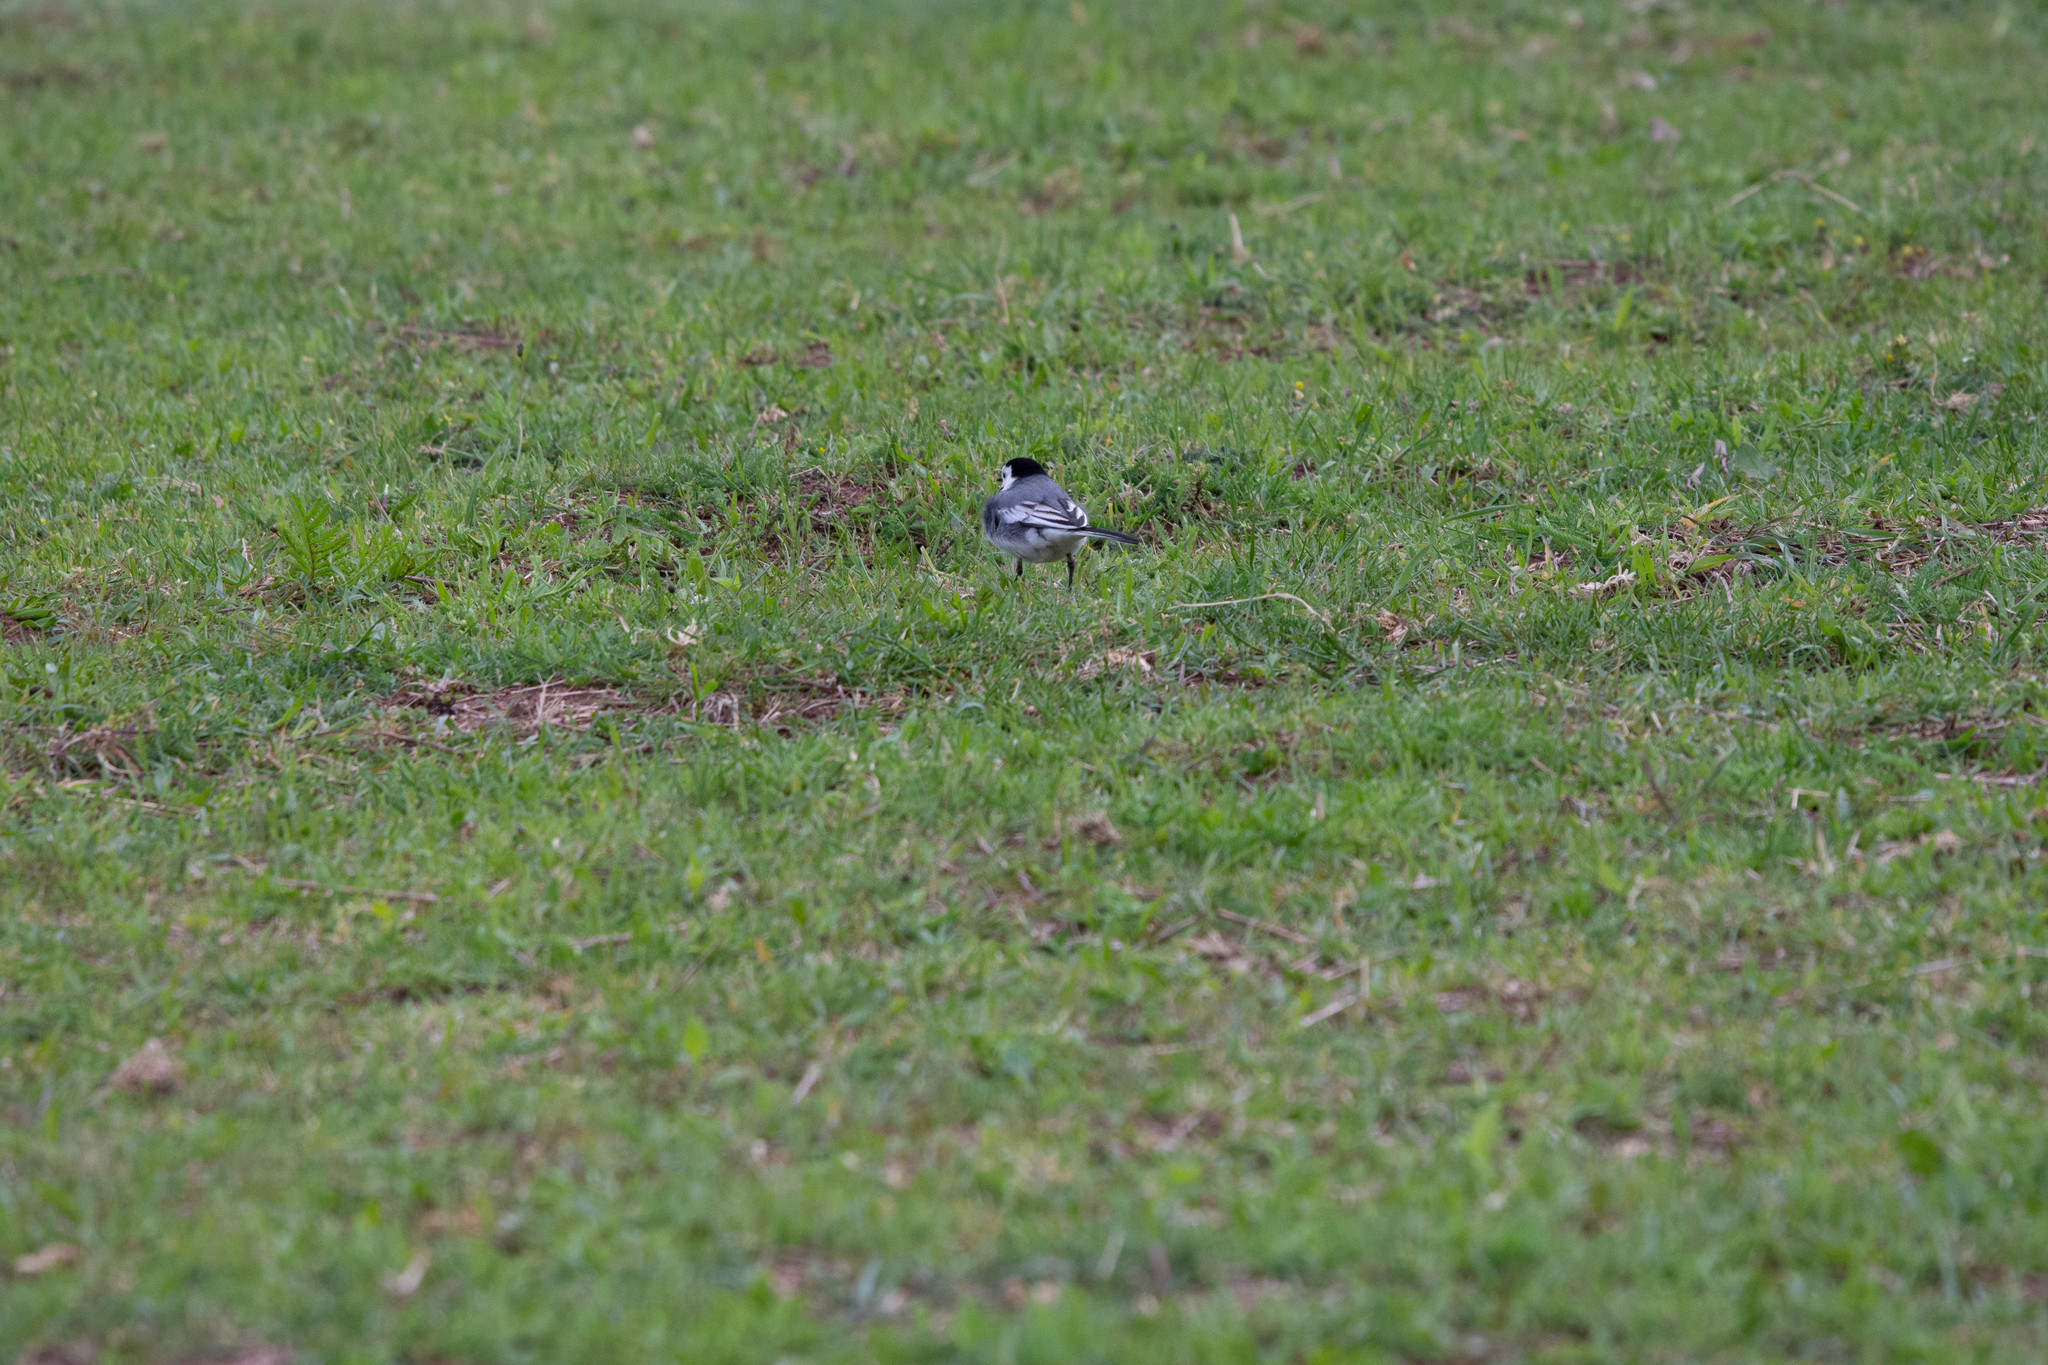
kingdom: Animalia
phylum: Chordata
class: Aves
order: Passeriformes
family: Motacillidae
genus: Motacilla
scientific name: Motacilla alba
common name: White wagtail
